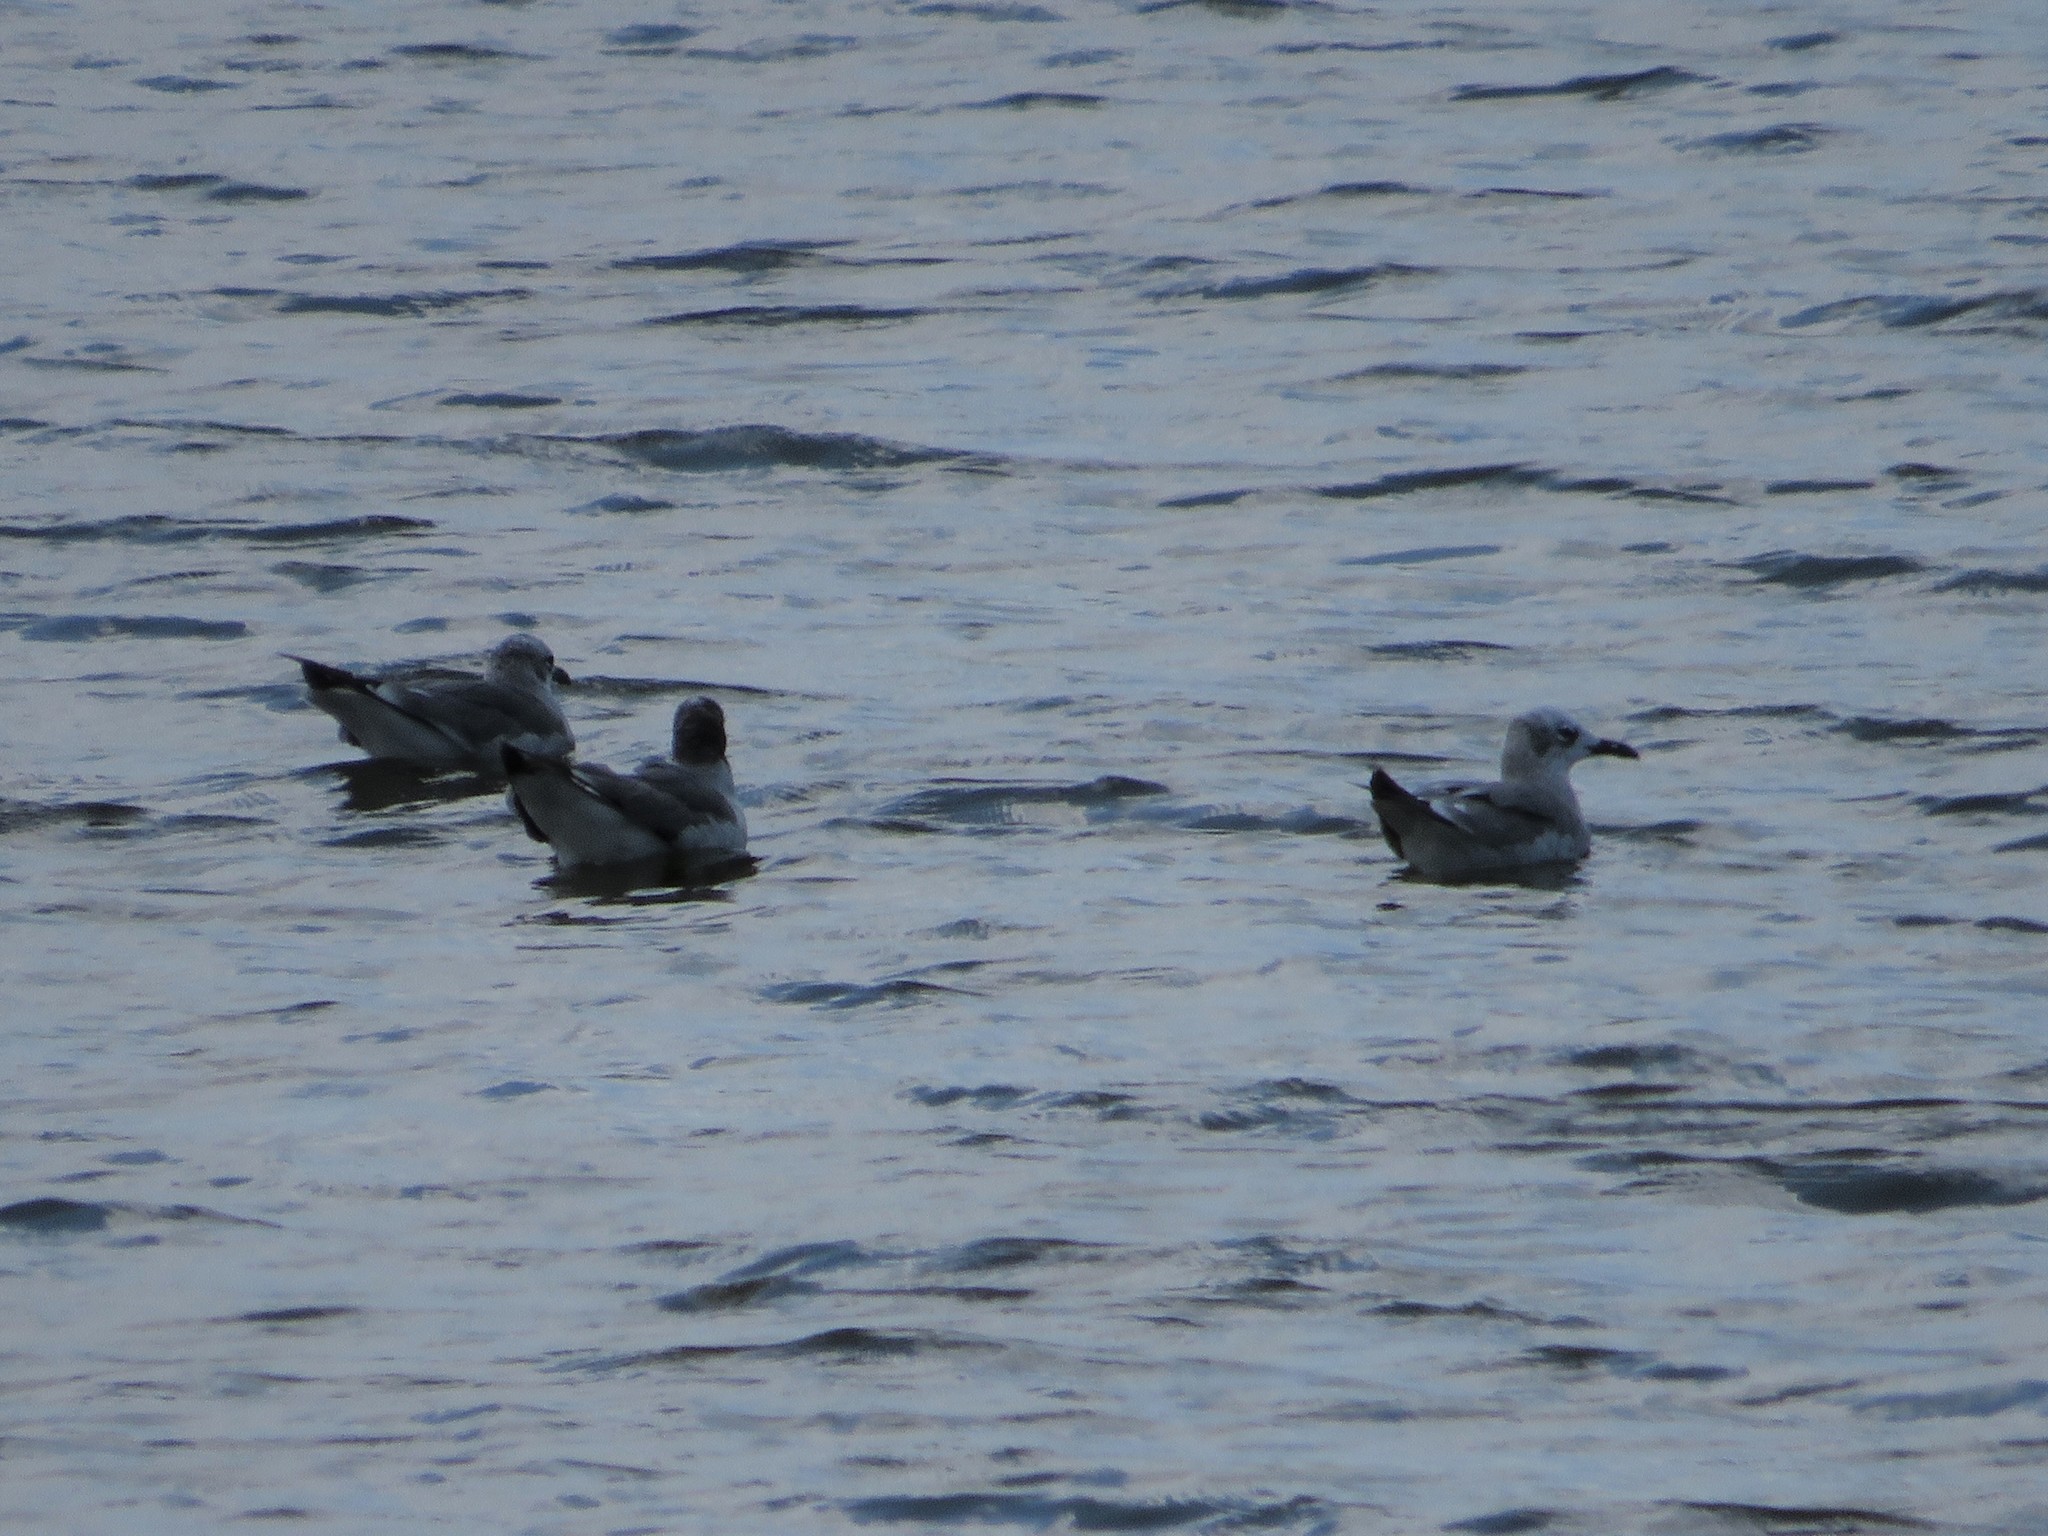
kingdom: Animalia
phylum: Chordata
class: Aves
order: Charadriiformes
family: Laridae
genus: Leucophaeus
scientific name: Leucophaeus atricilla
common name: Laughing gull
